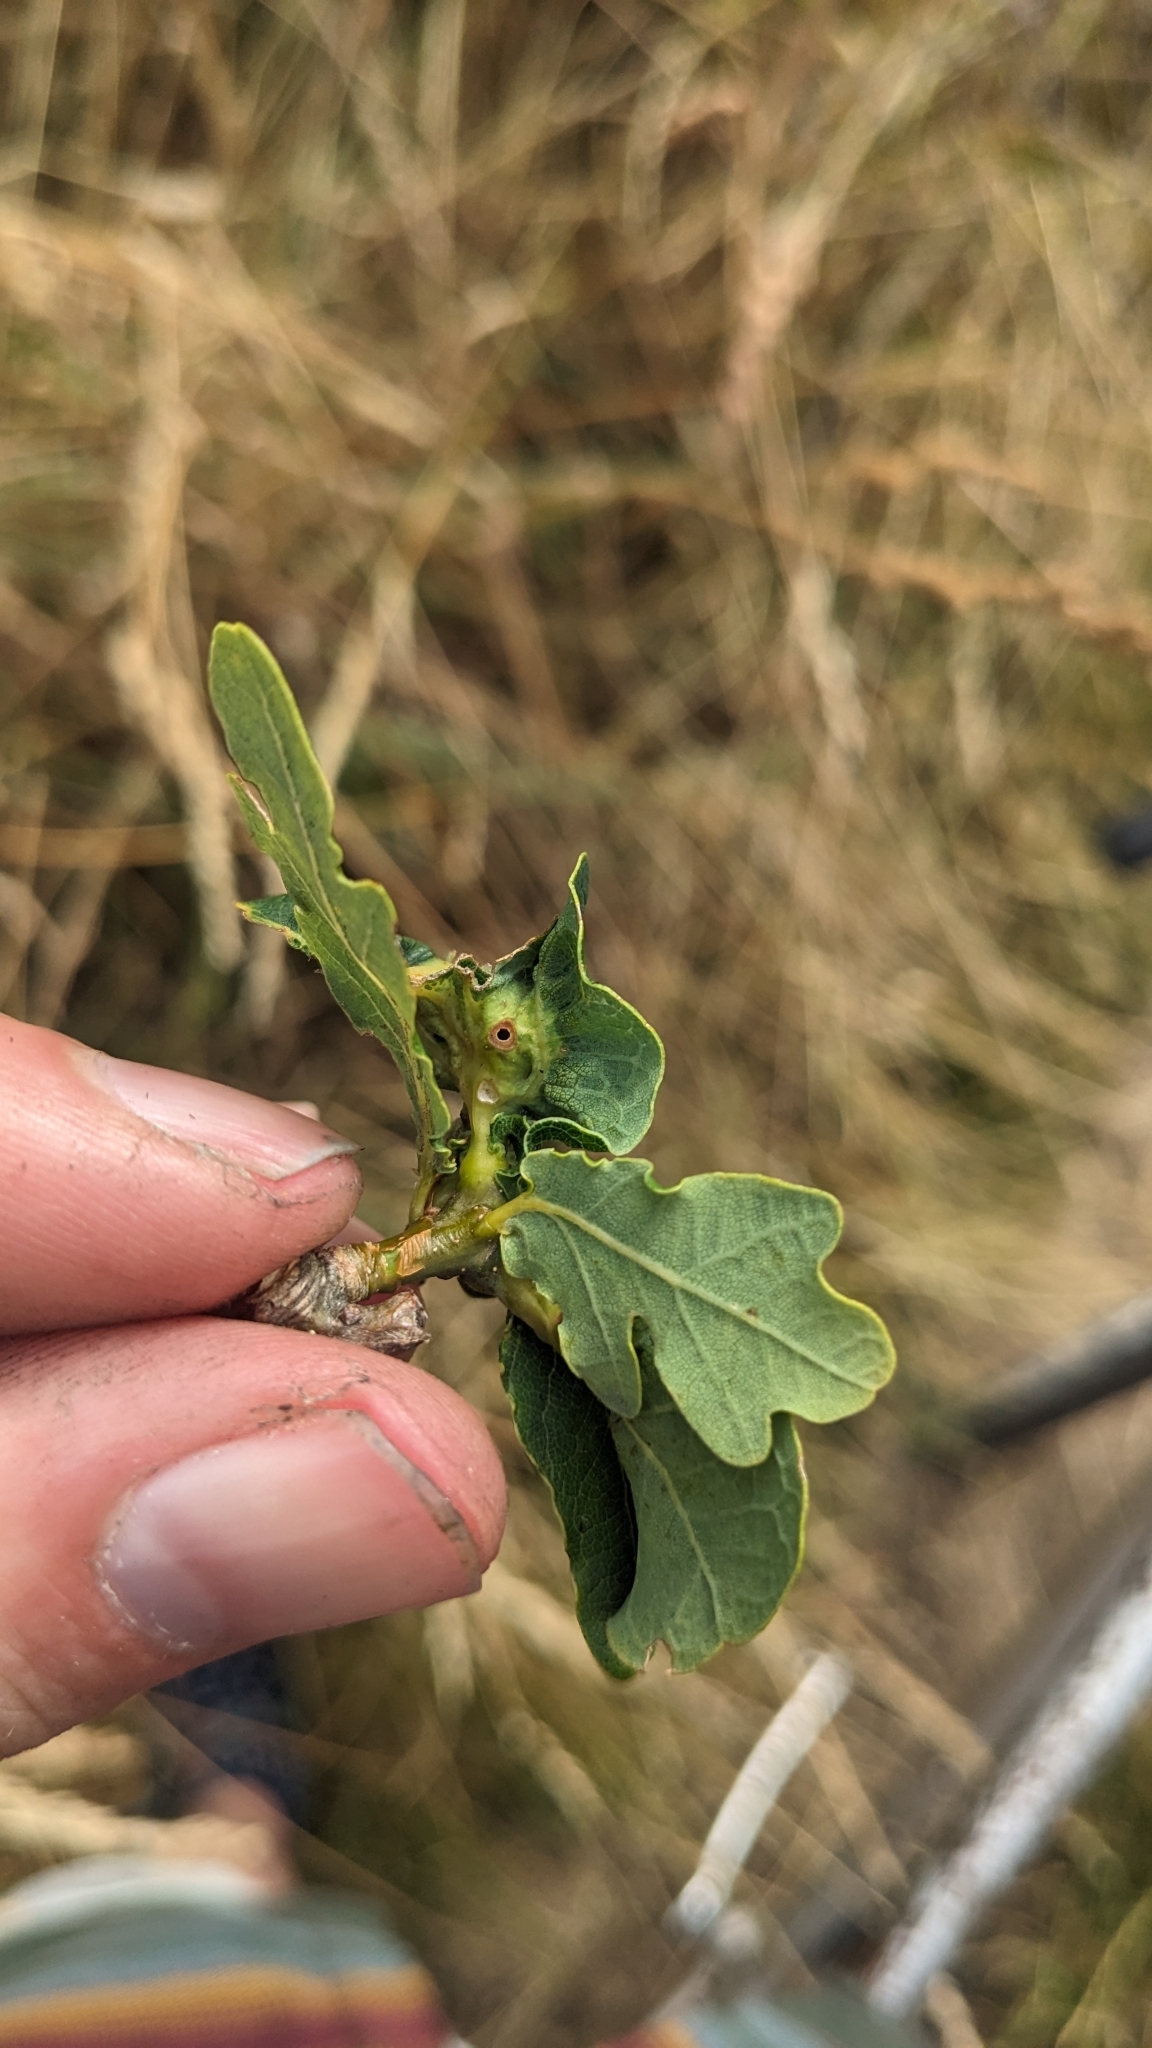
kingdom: Animalia
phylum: Arthropoda
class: Insecta
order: Hymenoptera
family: Cynipidae
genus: Andricus
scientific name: Andricus curvator
